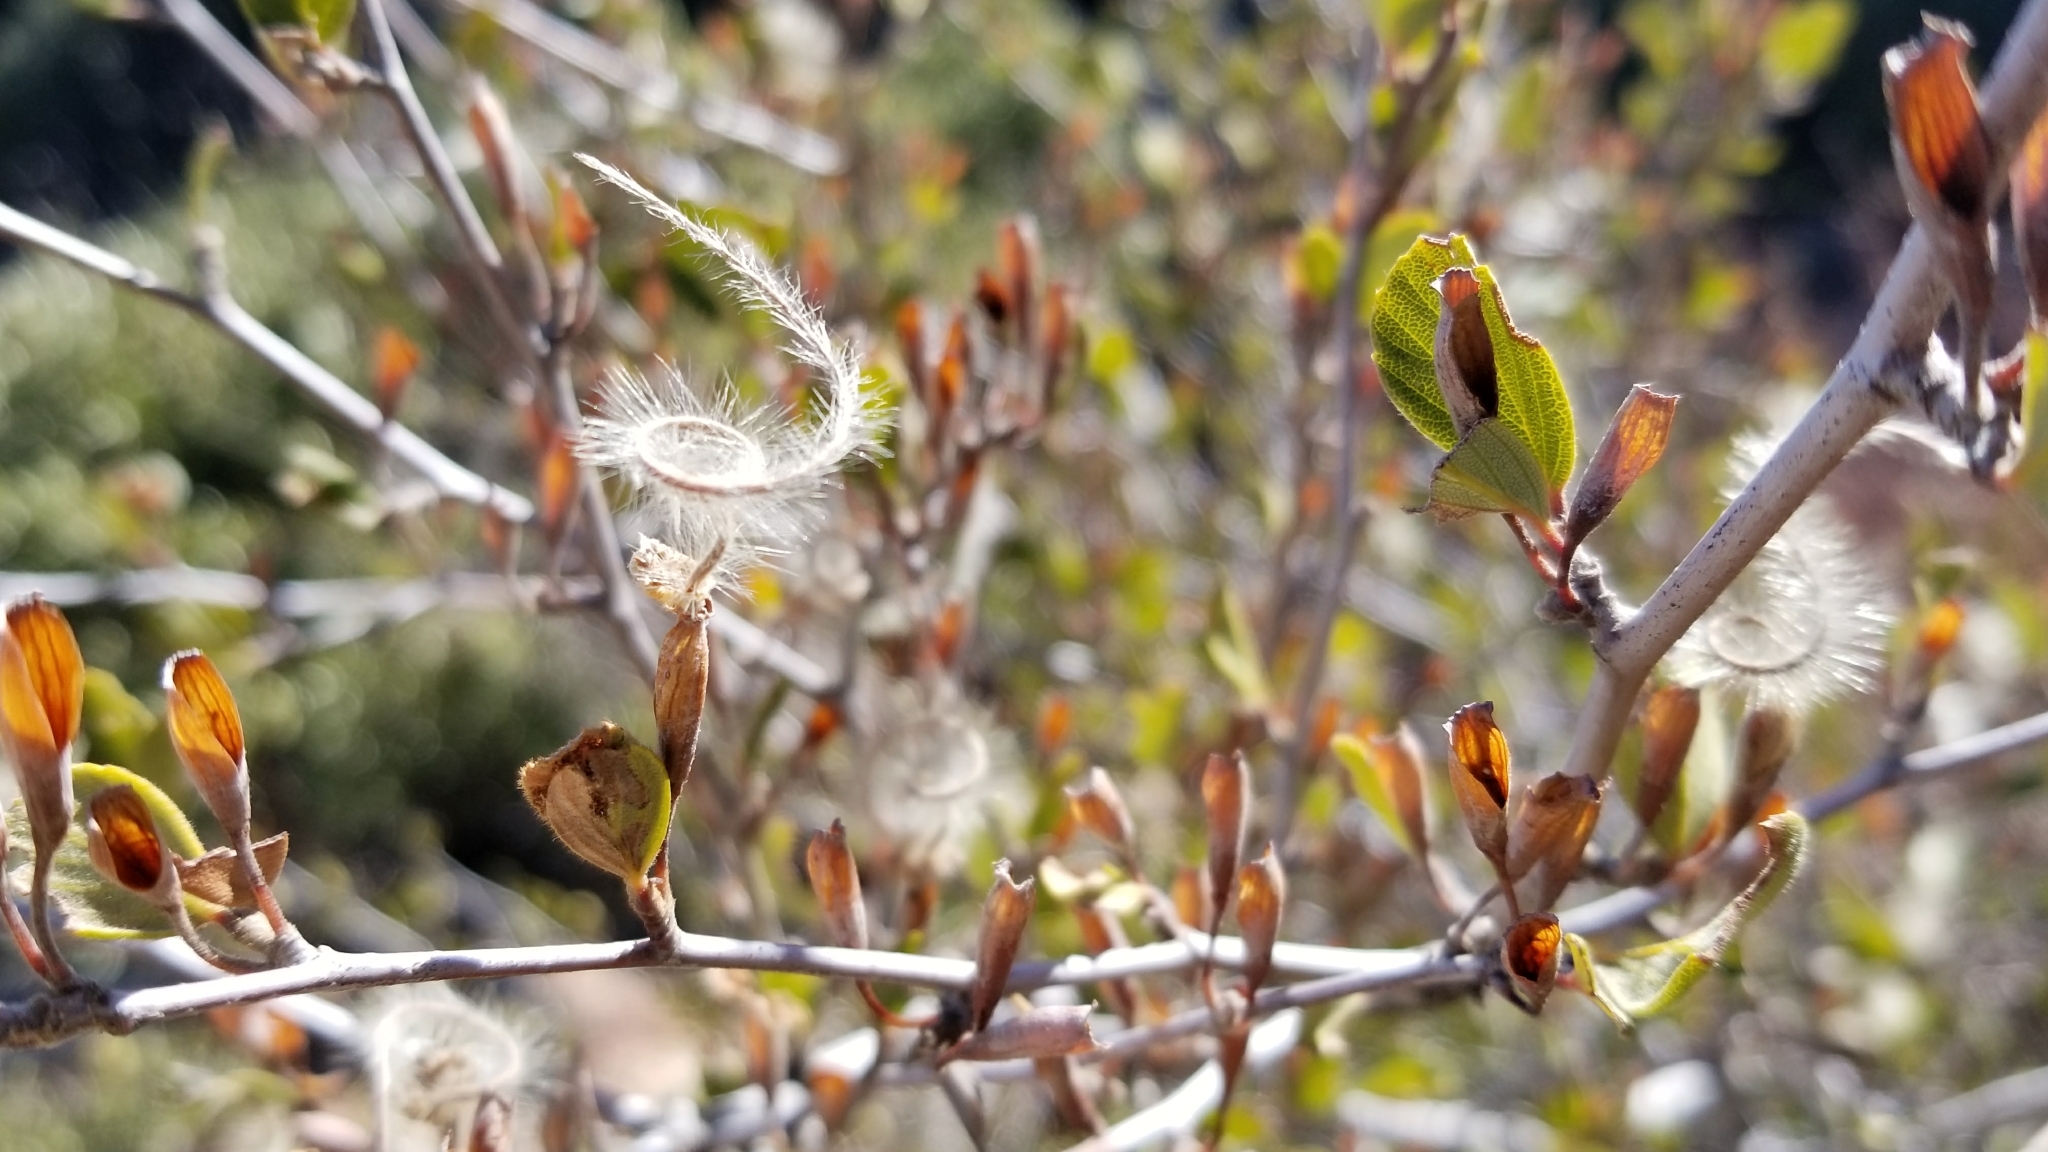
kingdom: Plantae
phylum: Tracheophyta
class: Magnoliopsida
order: Rosales
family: Rosaceae
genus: Cercocarpus
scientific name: Cercocarpus betuloides
